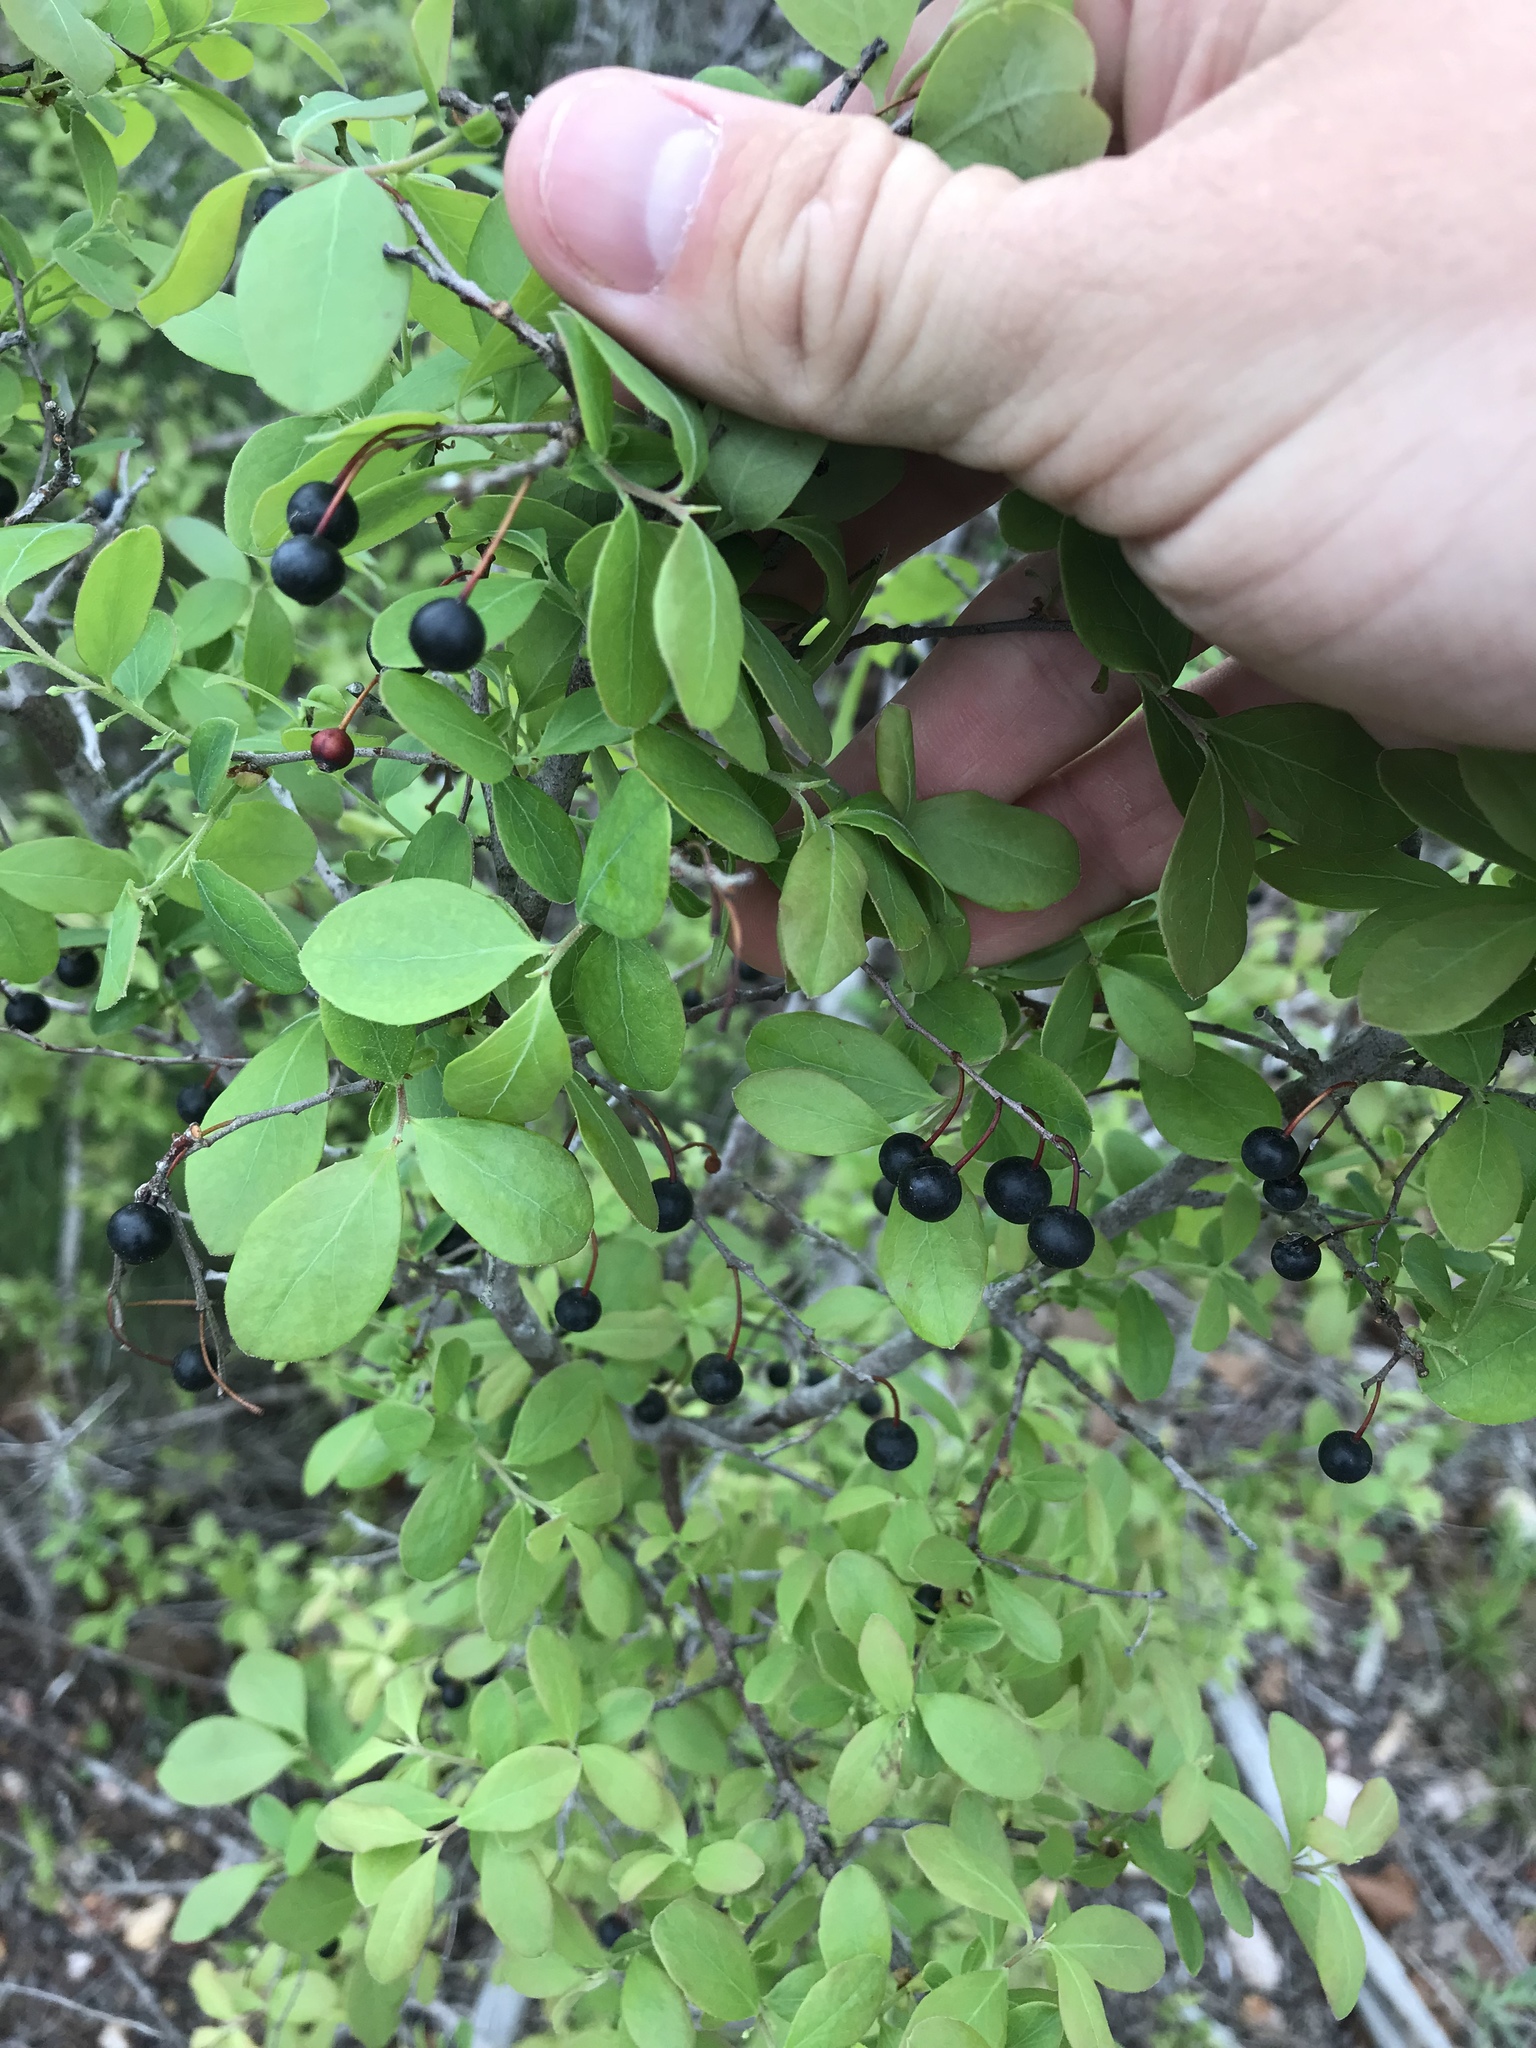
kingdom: Plantae
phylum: Tracheophyta
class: Magnoliopsida
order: Ericales
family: Ericaceae
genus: Vaccinium
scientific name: Vaccinium arboreum
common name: Farkleberry
